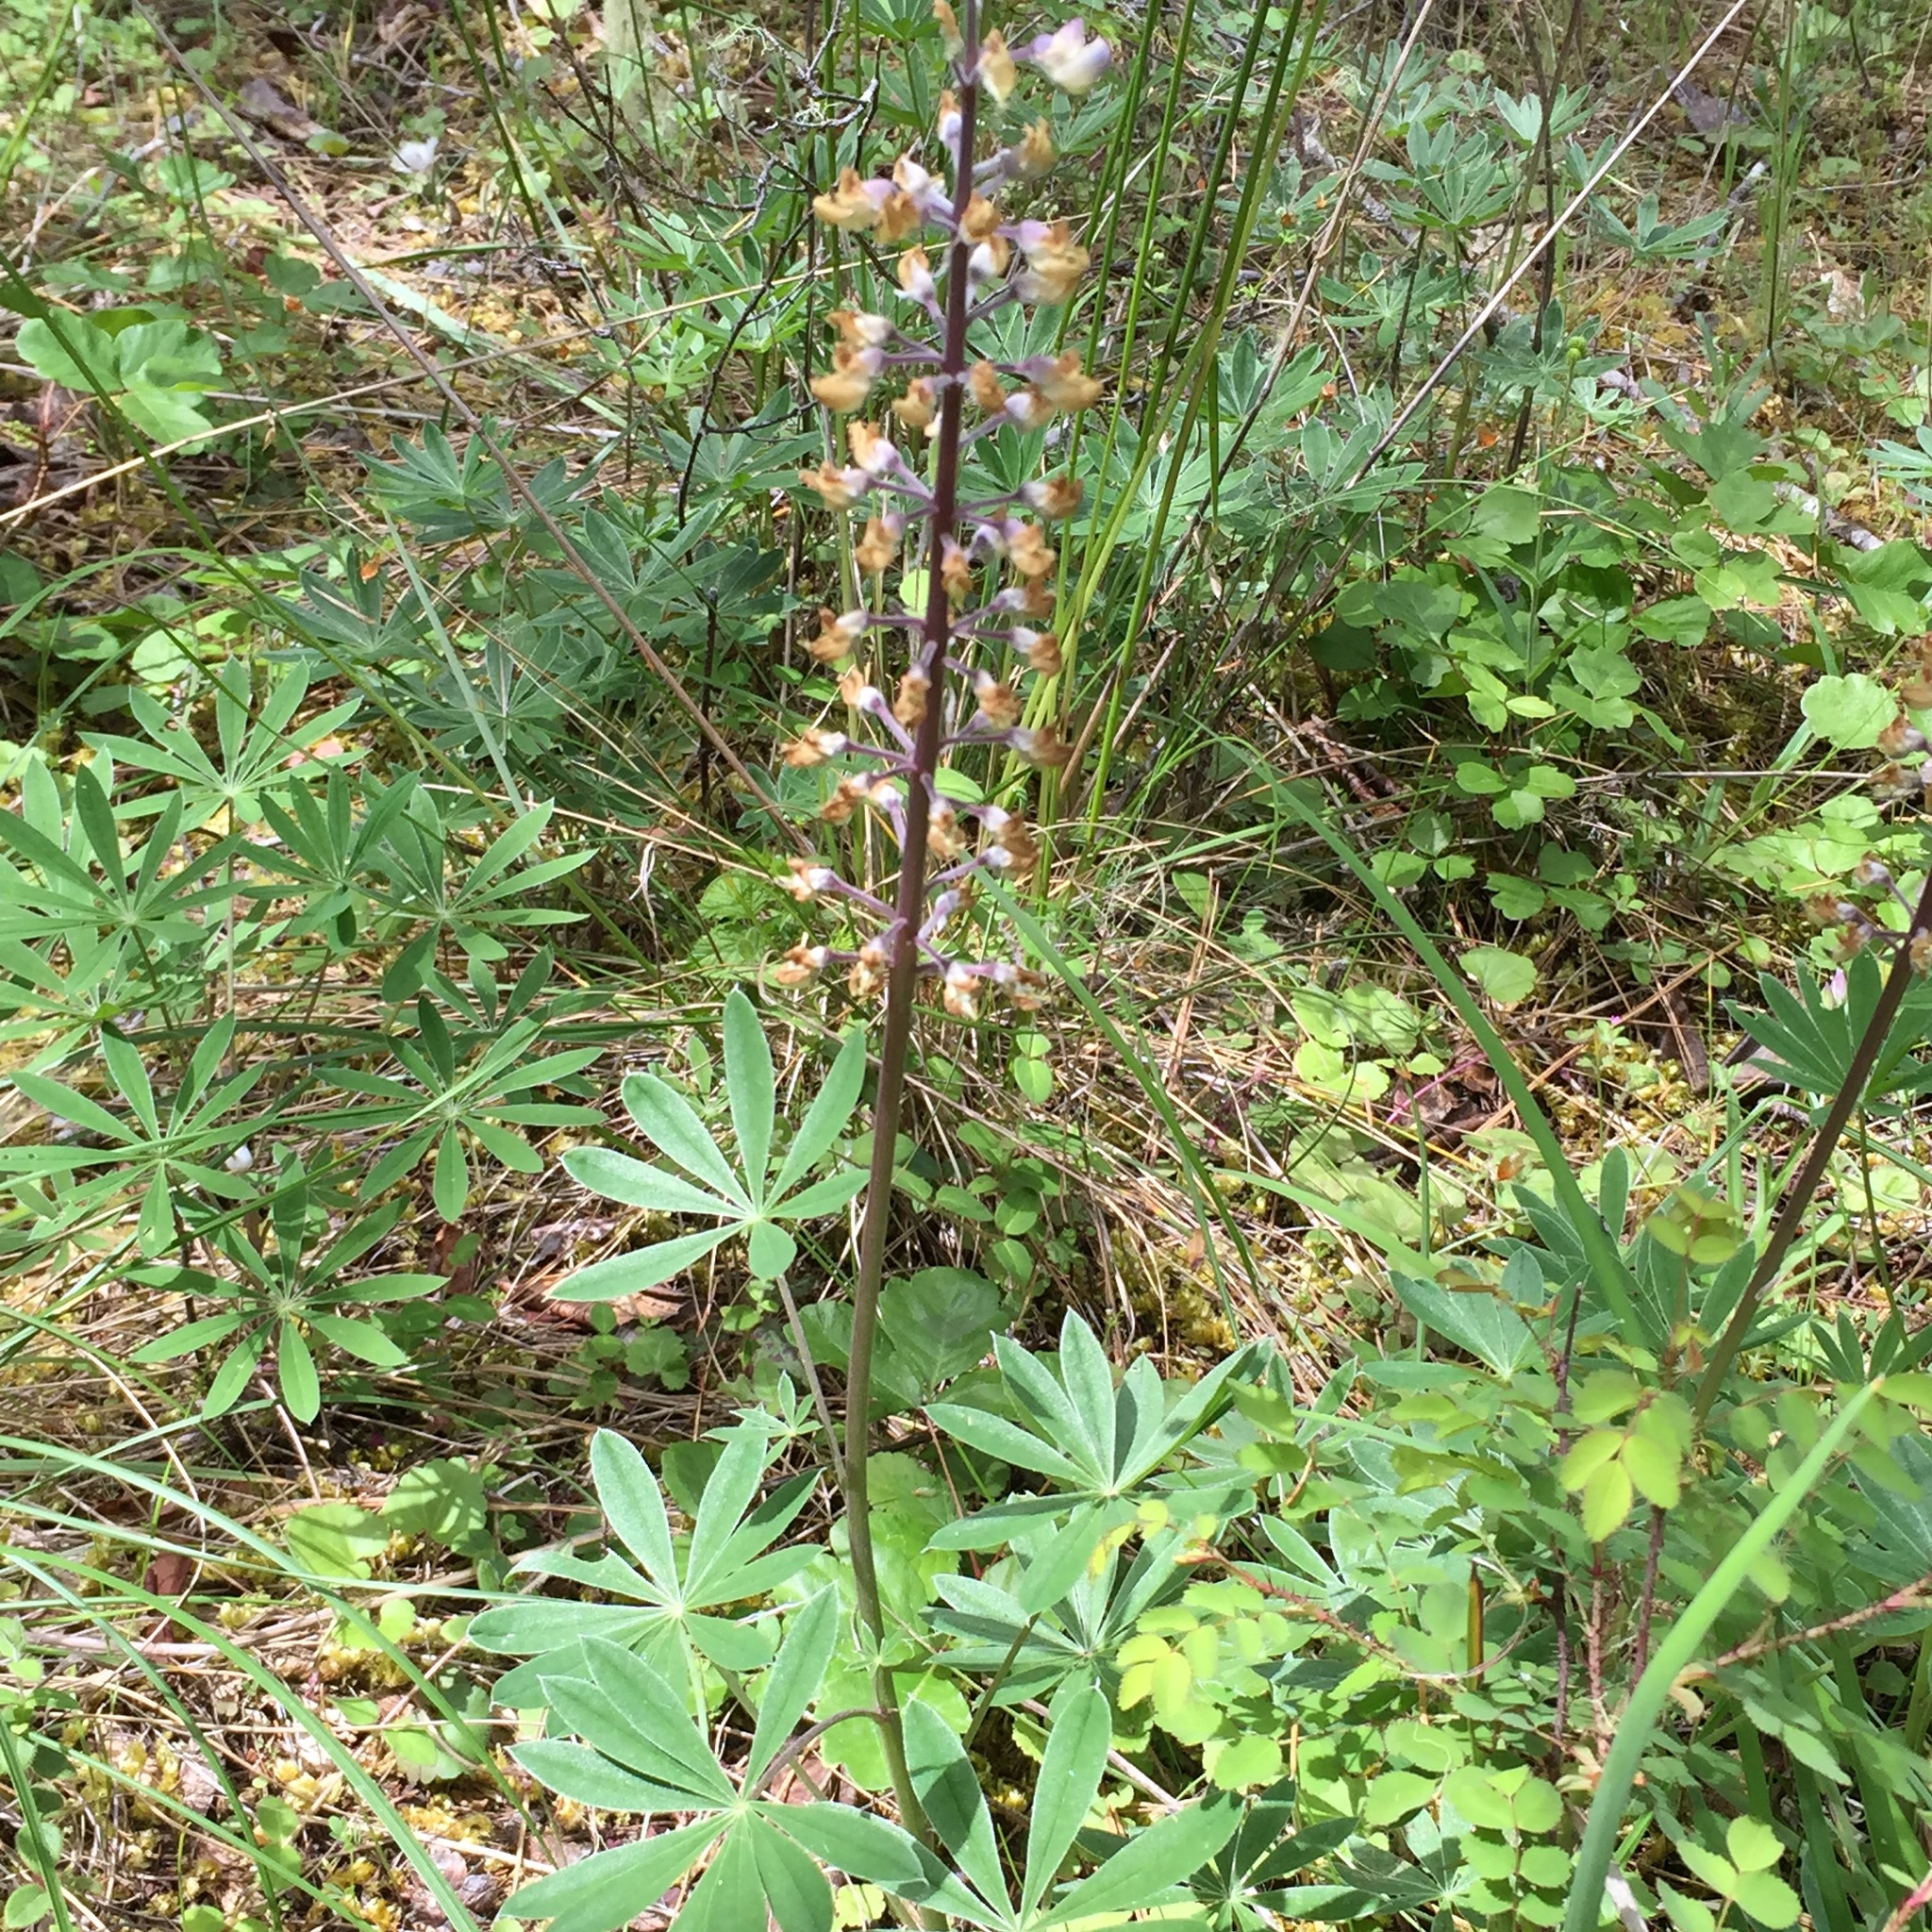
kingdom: Plantae
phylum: Tracheophyta
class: Magnoliopsida
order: Fabales
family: Fabaceae
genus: Lupinus
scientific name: Lupinus oreganus
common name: Kincaid's lupine
